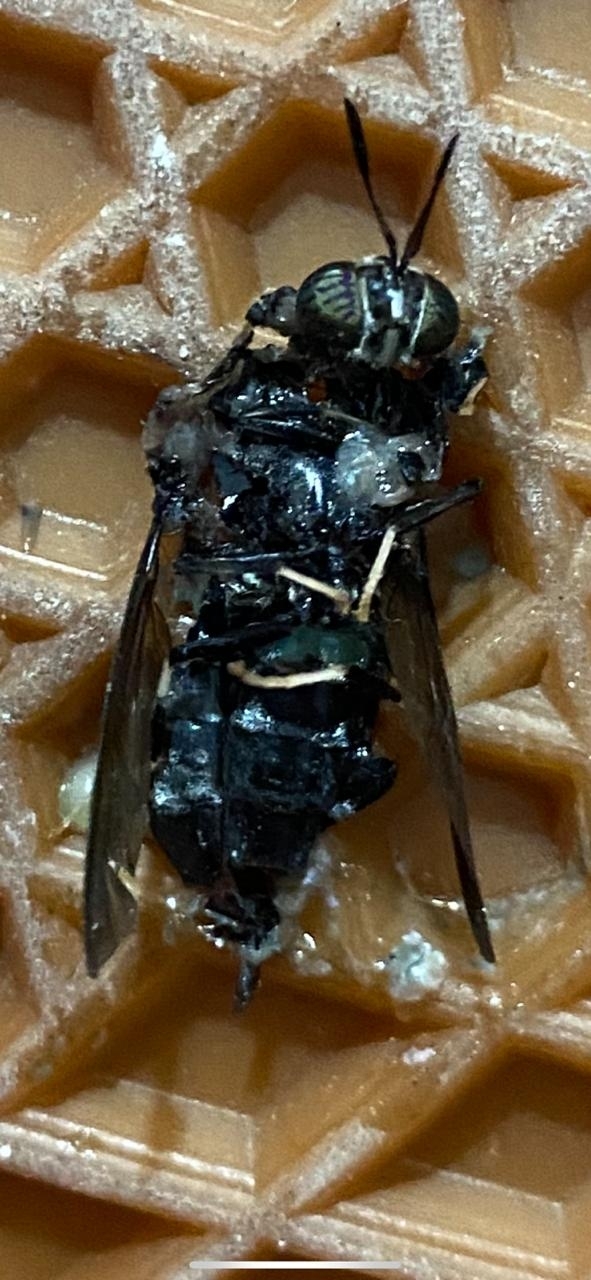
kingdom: Animalia
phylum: Arthropoda
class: Insecta
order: Diptera
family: Stratiomyidae
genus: Hermetia
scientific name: Hermetia illucens
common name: Black soldier fly
